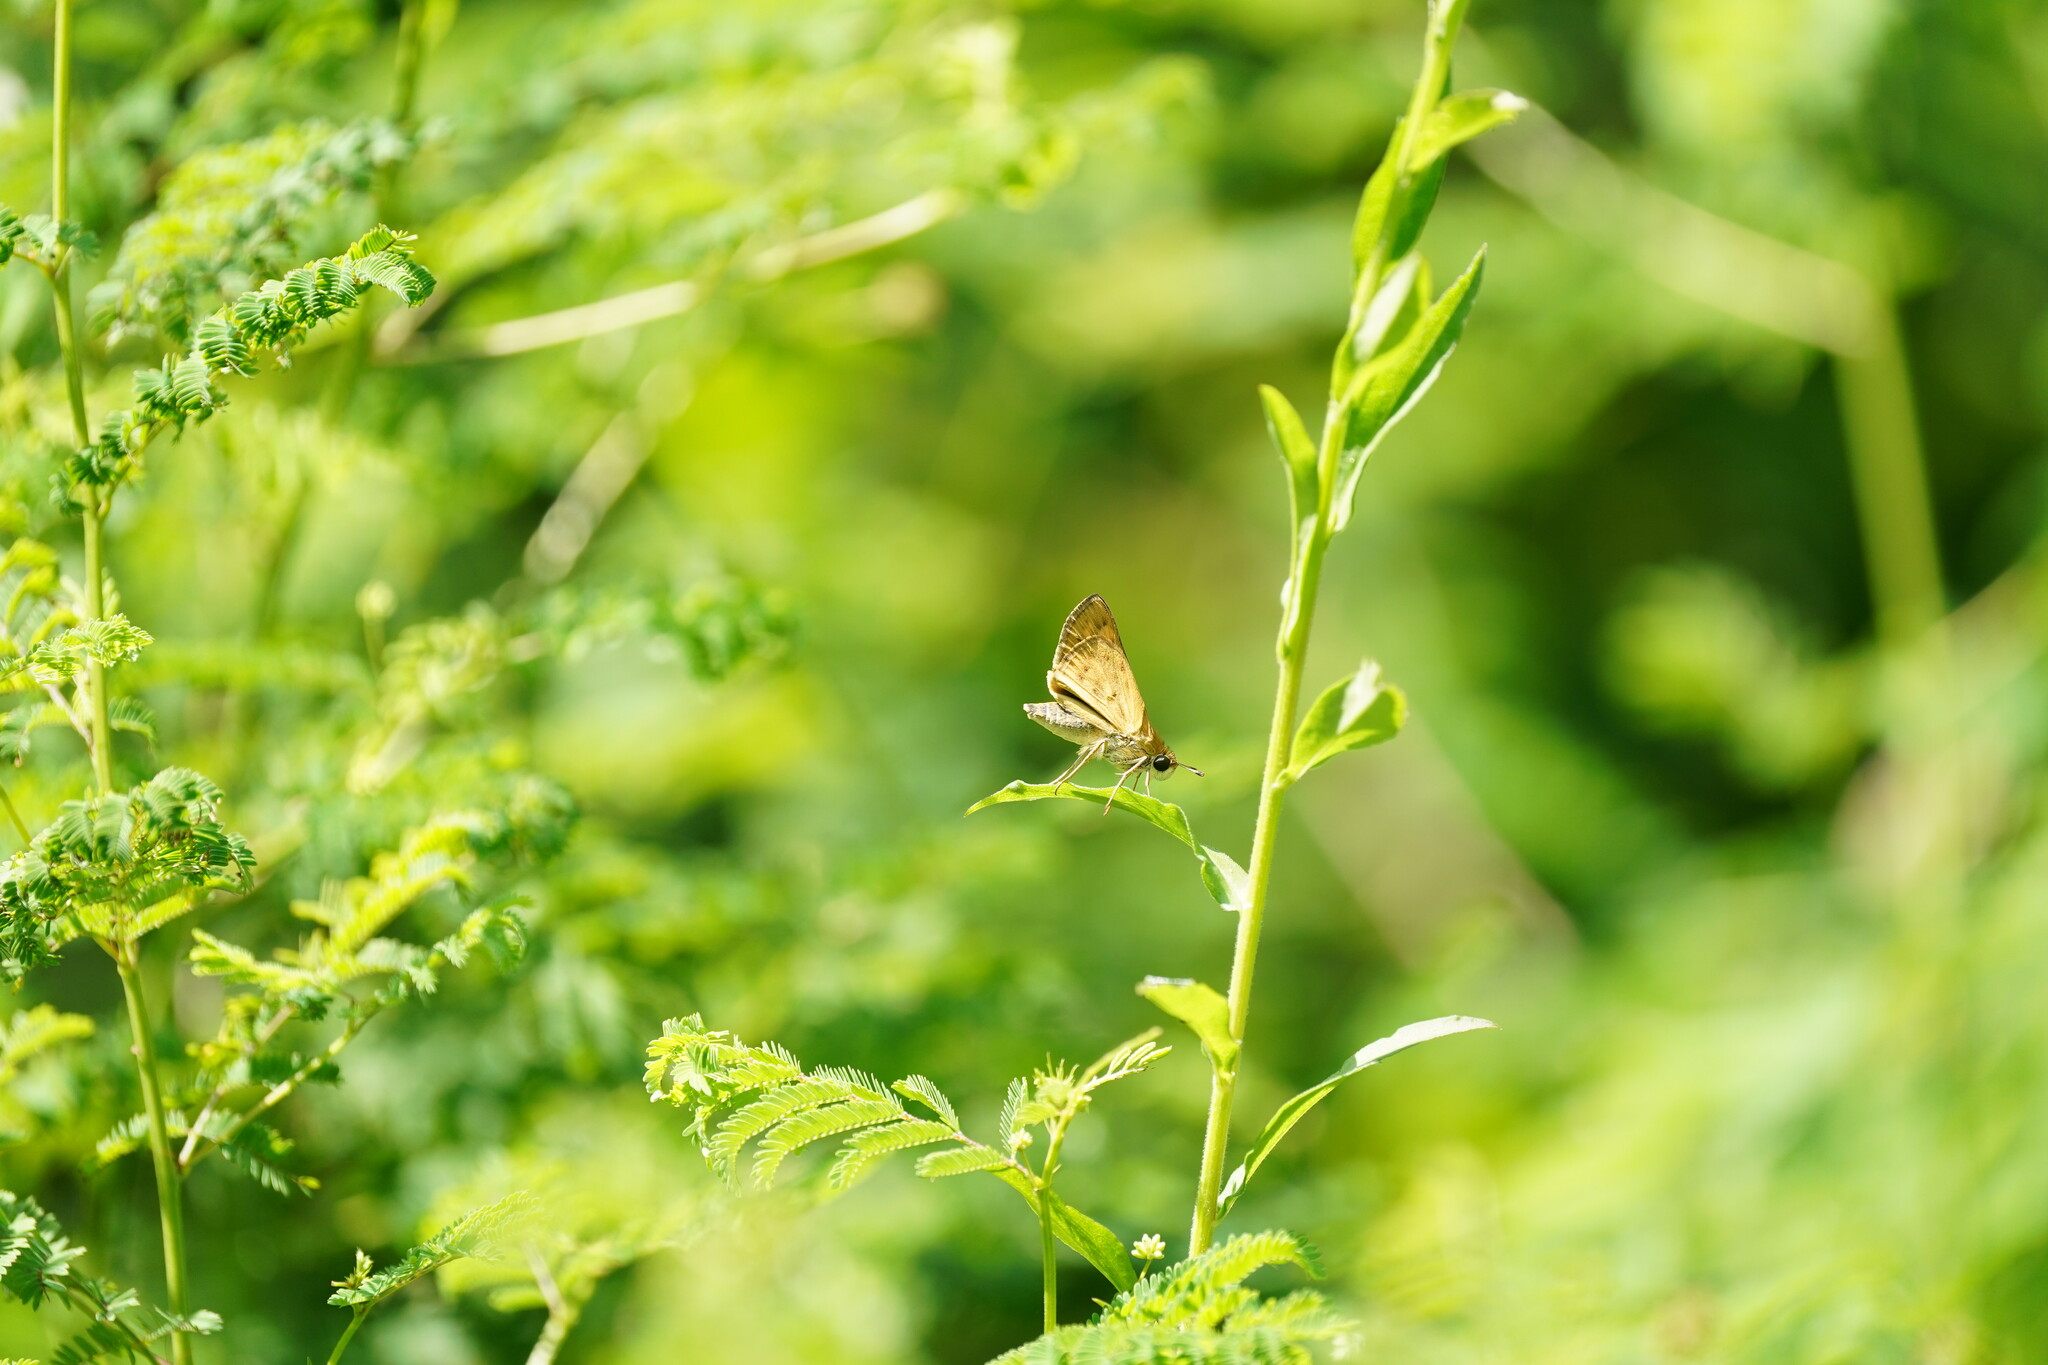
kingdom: Animalia
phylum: Arthropoda
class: Insecta
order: Lepidoptera
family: Hesperiidae
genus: Hylephila
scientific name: Hylephila phyleus
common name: Fiery skipper
